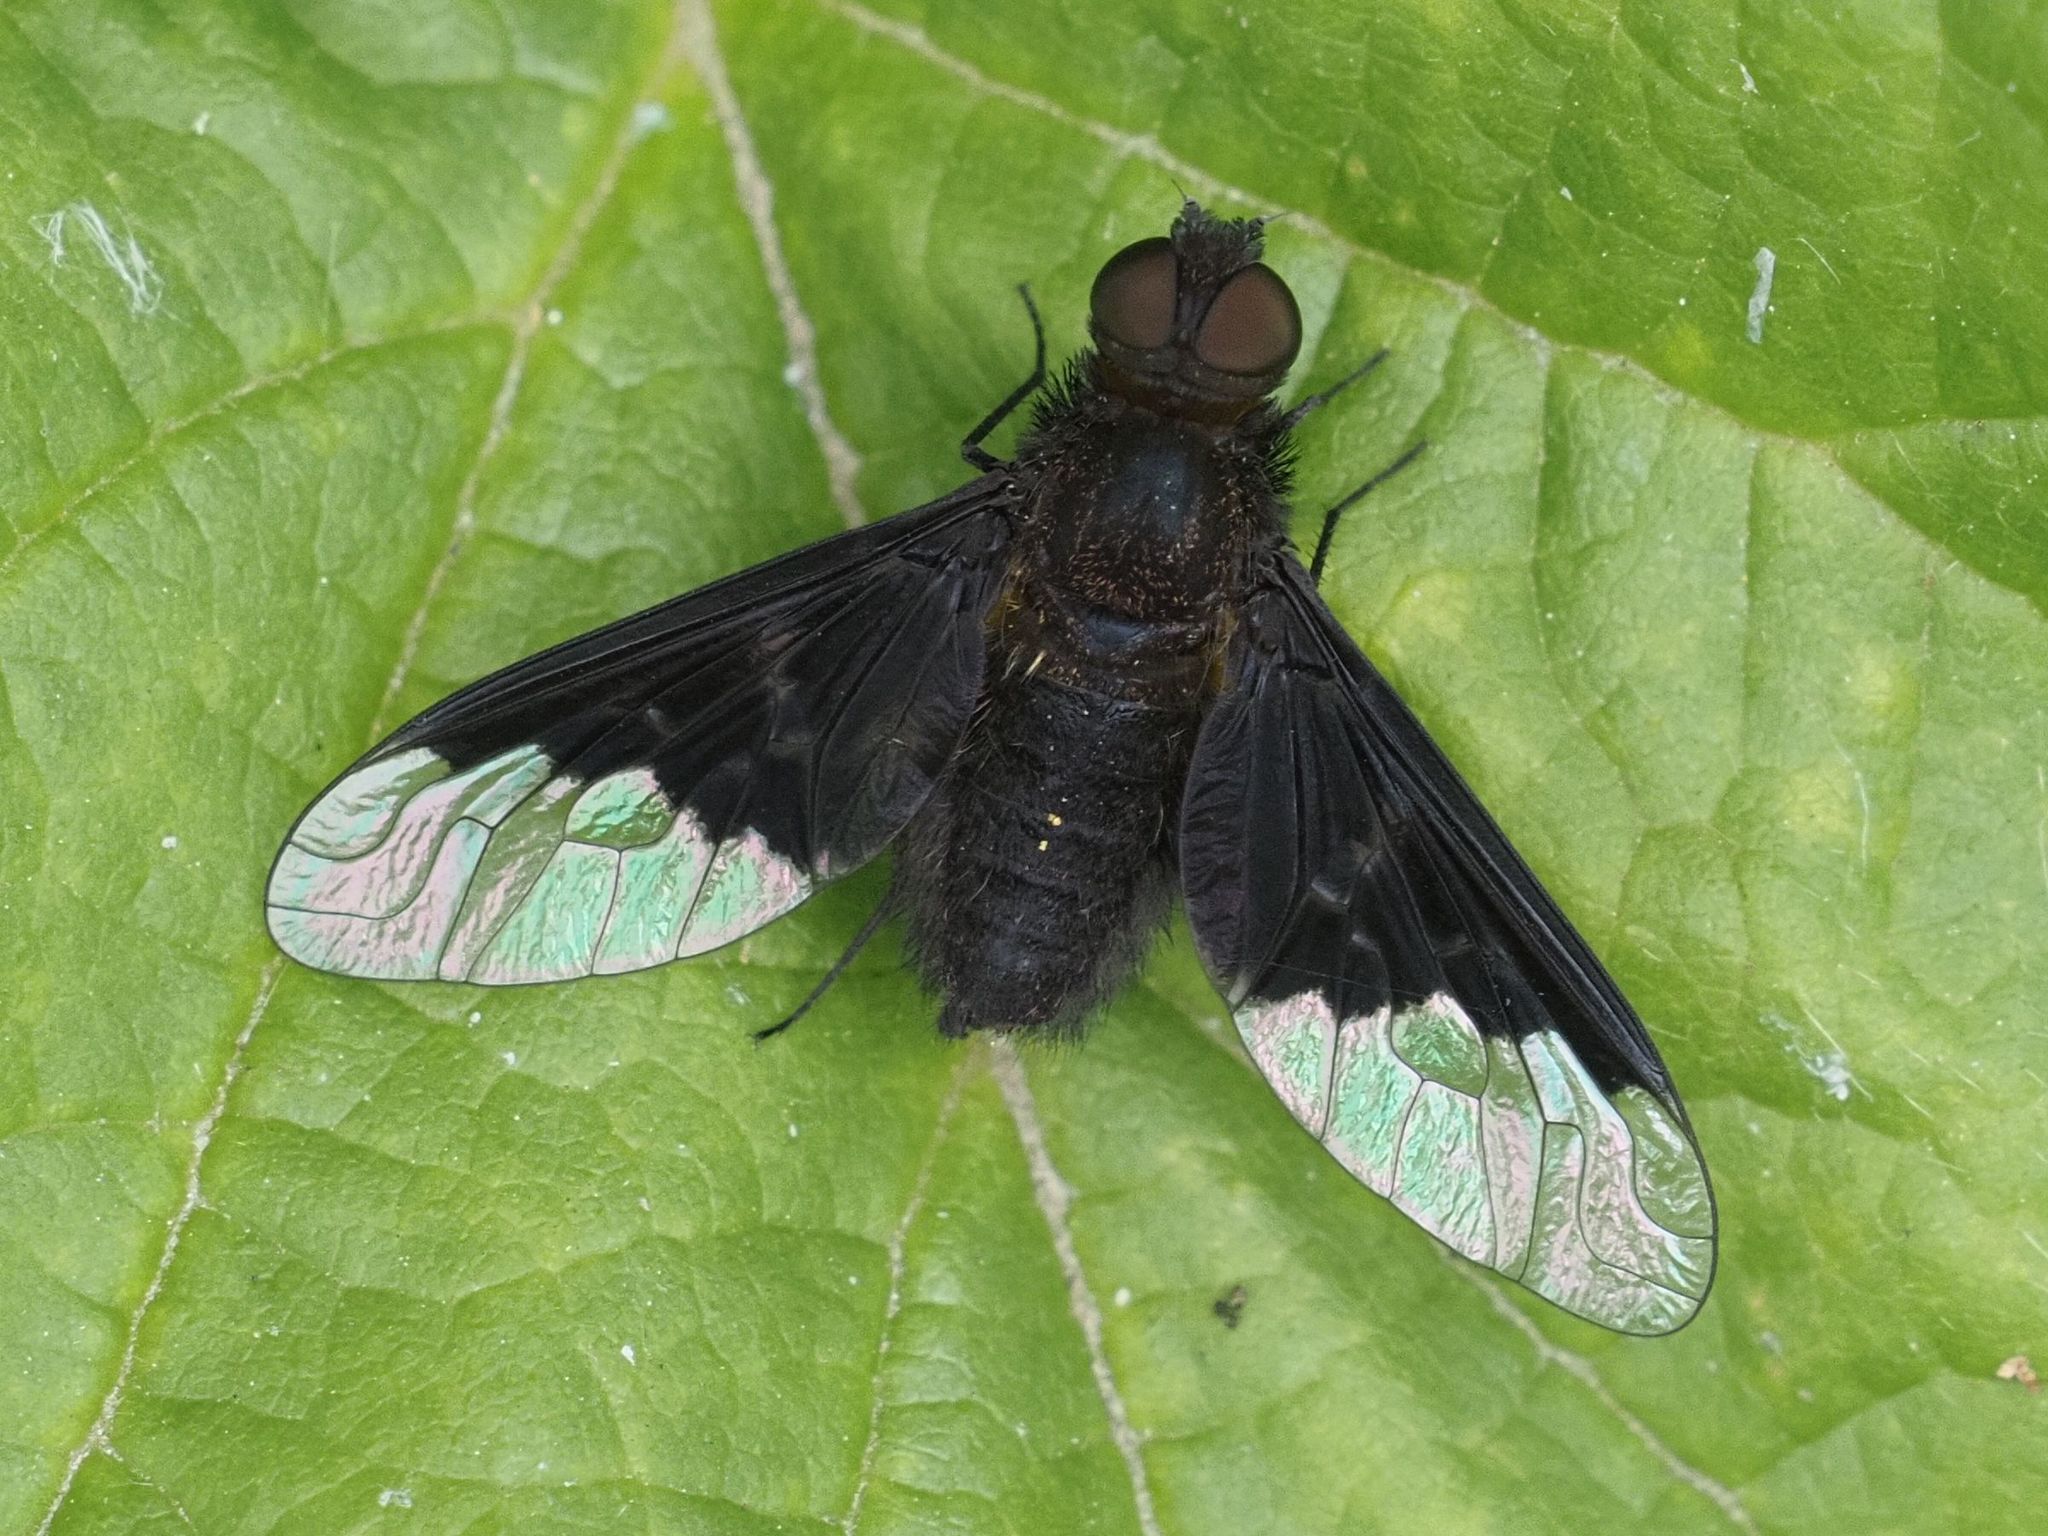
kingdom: Animalia
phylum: Arthropoda
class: Insecta
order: Diptera
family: Bombyliidae
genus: Hemipenthes
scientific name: Hemipenthes morio
